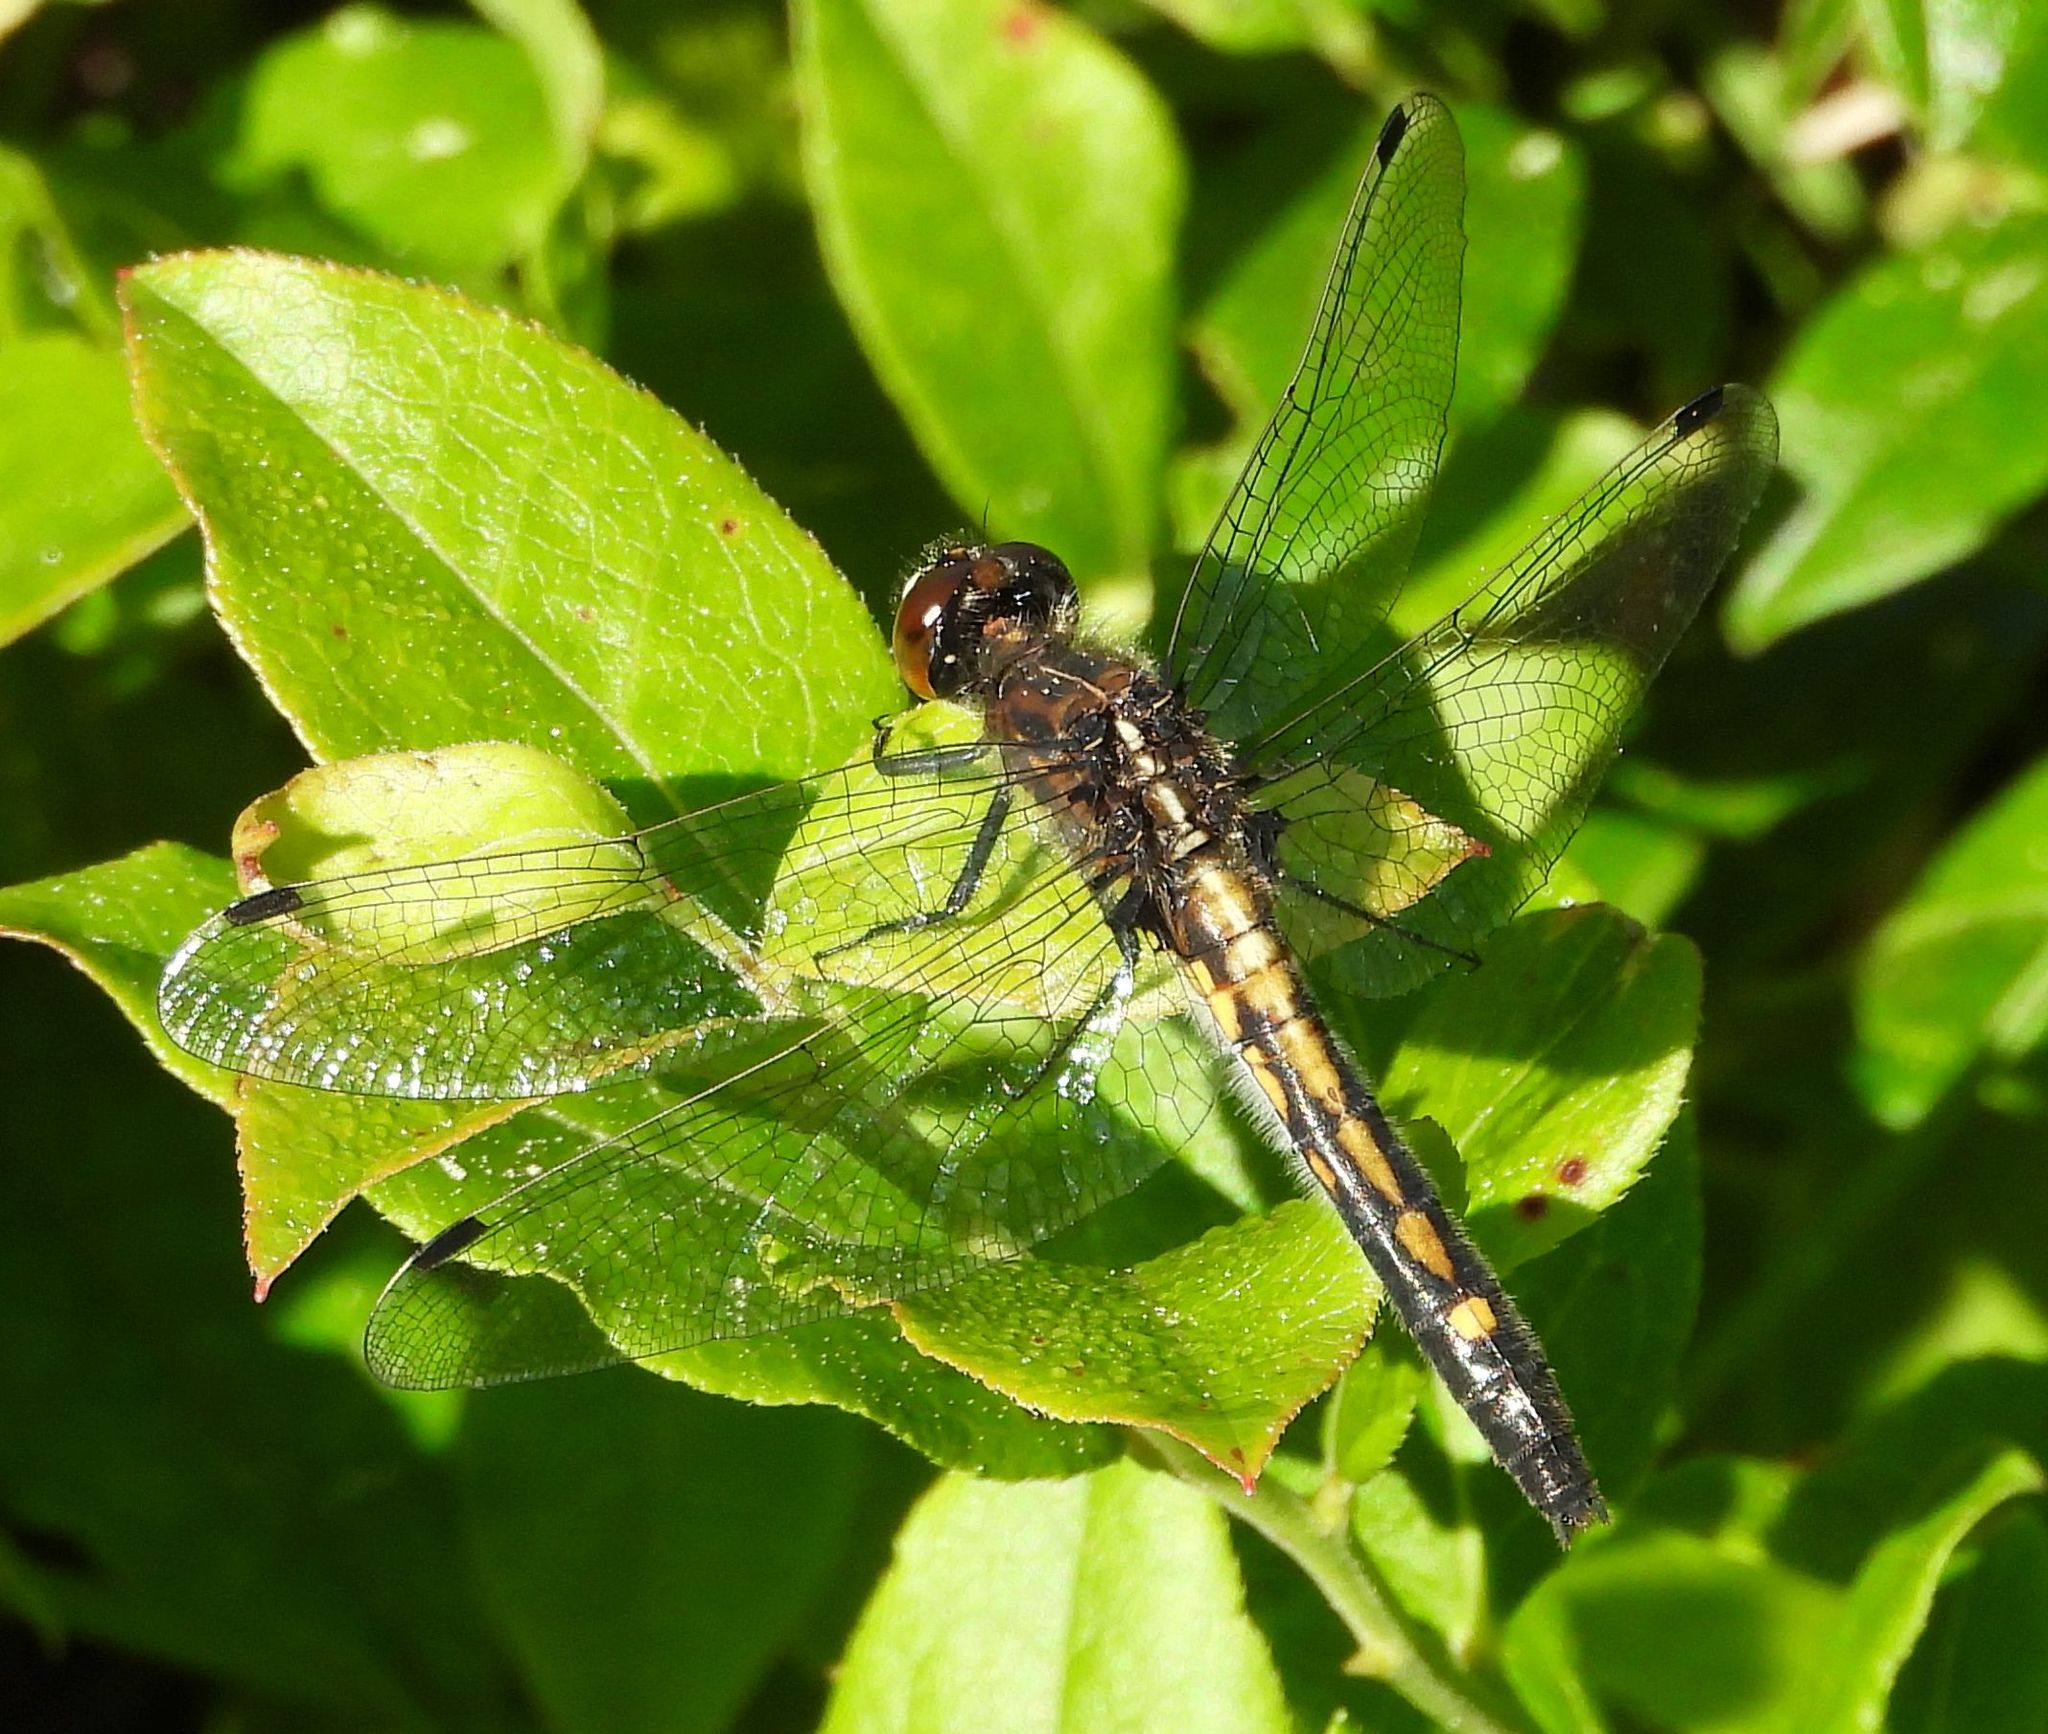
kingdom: Animalia
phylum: Arthropoda
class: Insecta
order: Odonata
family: Libellulidae
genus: Leucorrhinia
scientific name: Leucorrhinia intacta
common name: Dot-tailed whiteface
